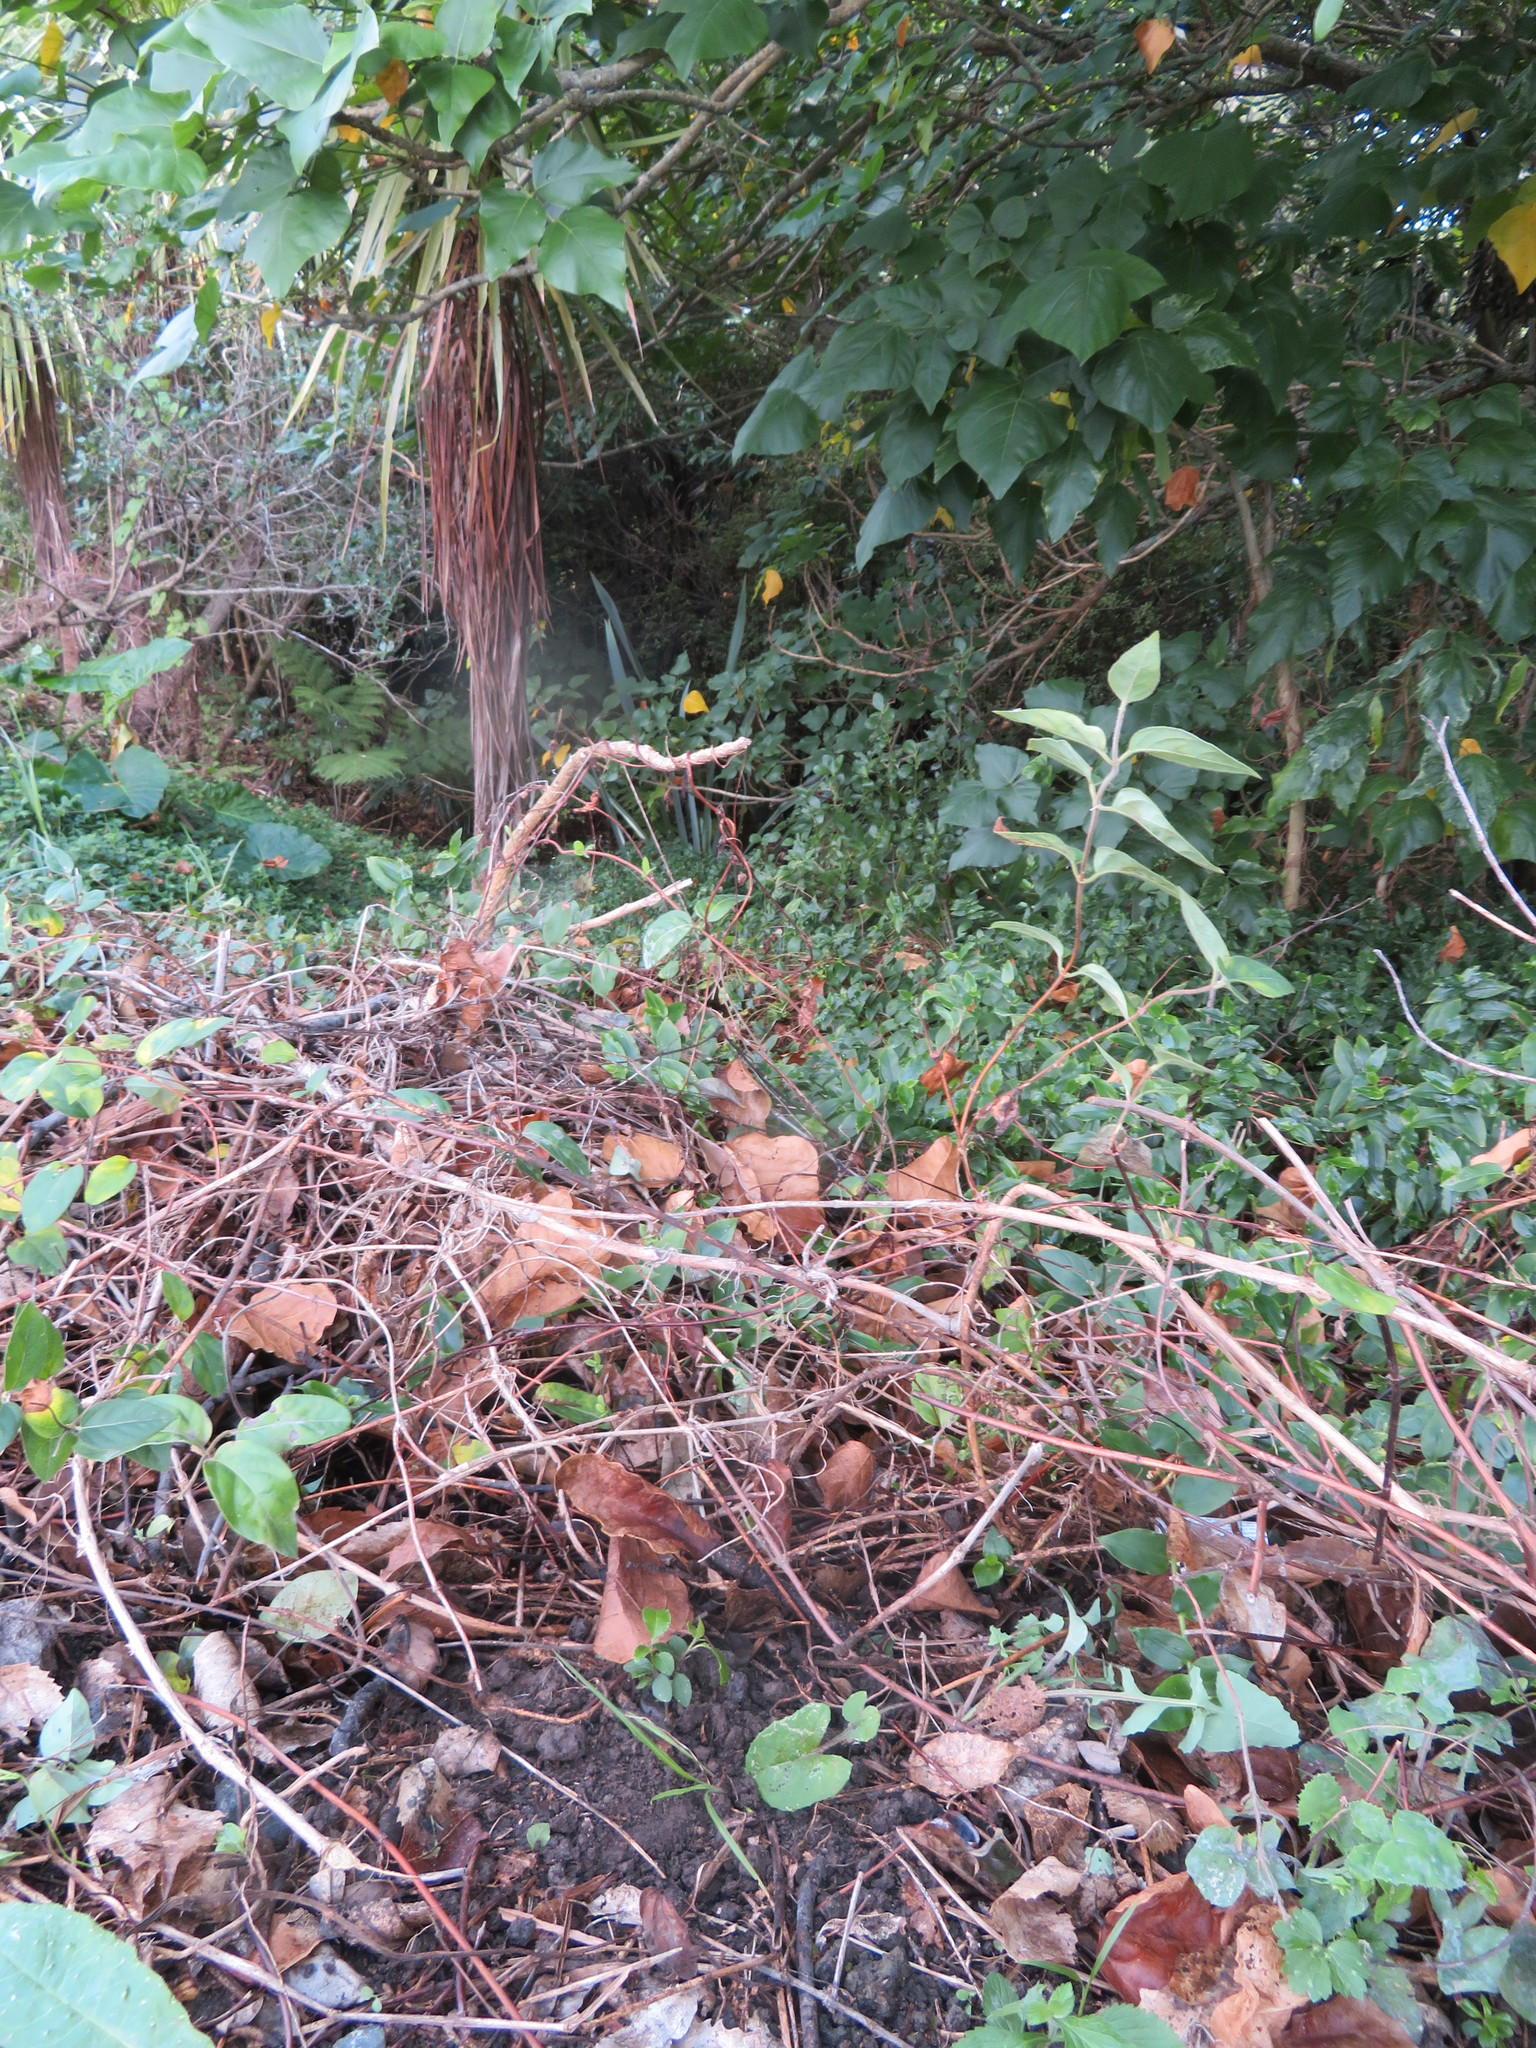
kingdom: Plantae
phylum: Tracheophyta
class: Liliopsida
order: Asparagales
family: Asparagaceae
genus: Cordyline
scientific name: Cordyline australis
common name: Cabbage-palm
